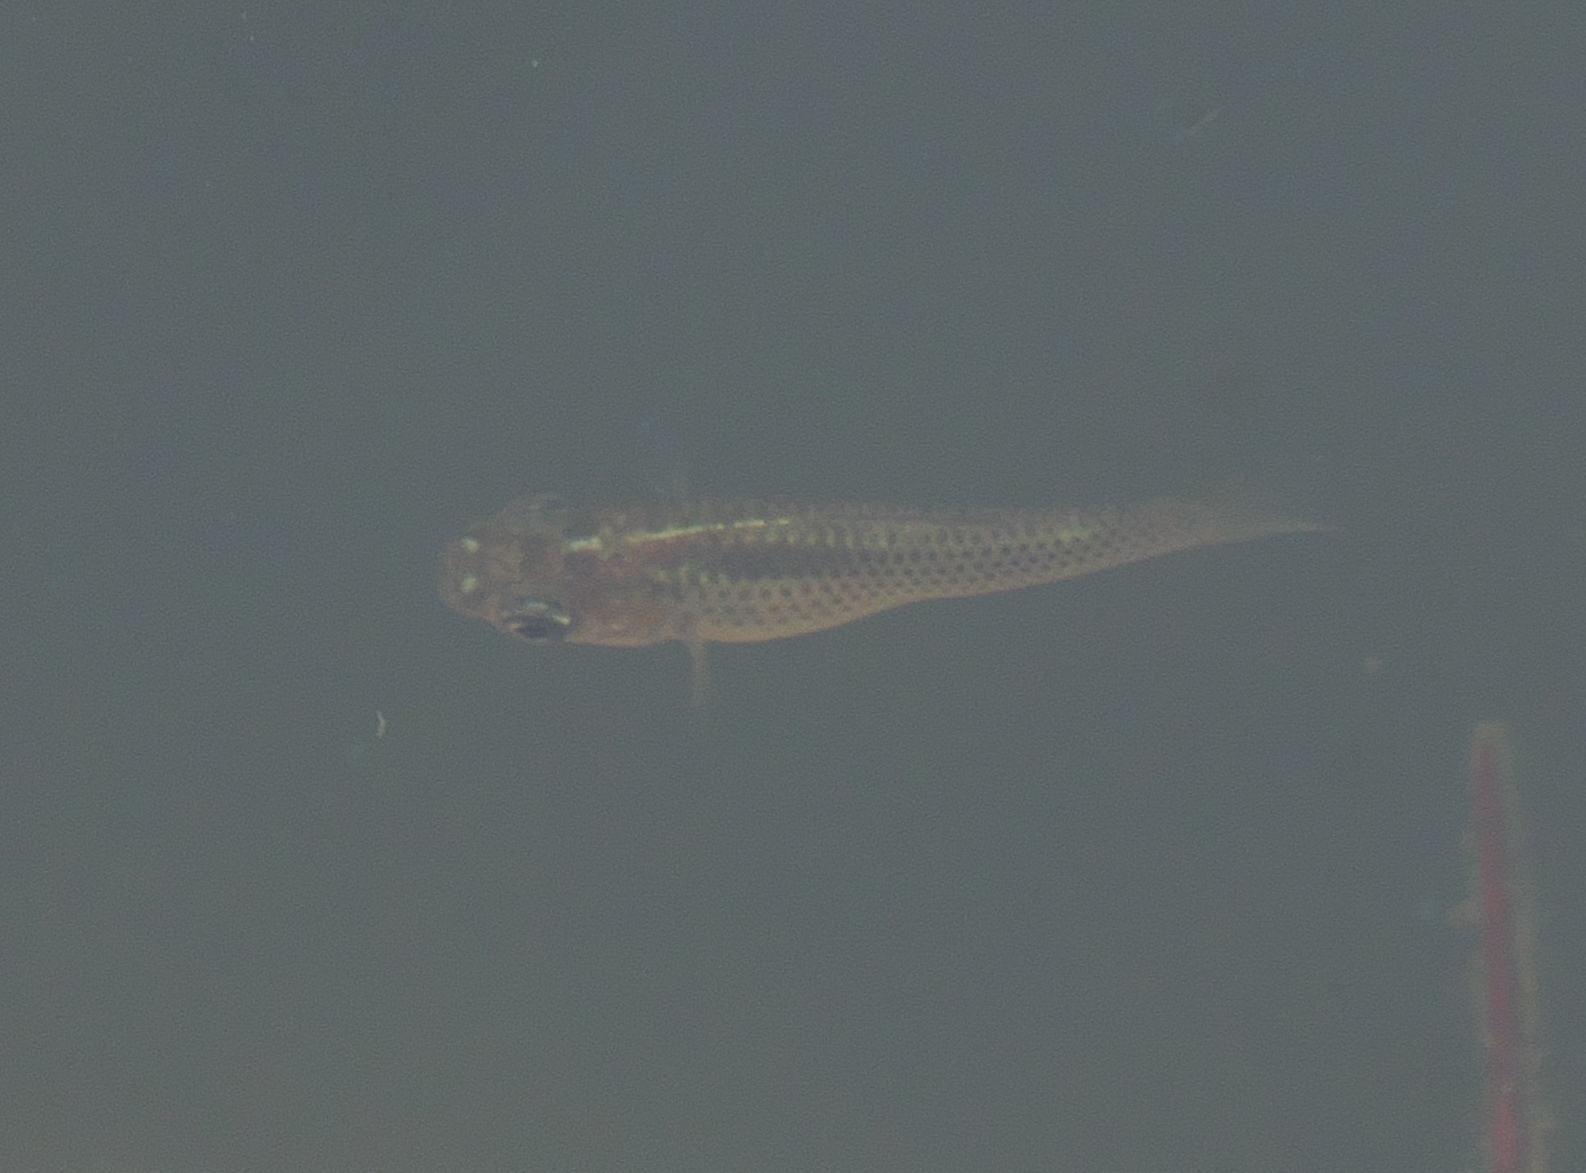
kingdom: Animalia
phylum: Chordata
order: Cyprinodontiformes
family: Poeciliidae
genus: Poecilia
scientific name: Poecilia latipinna
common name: Sailfin molly
